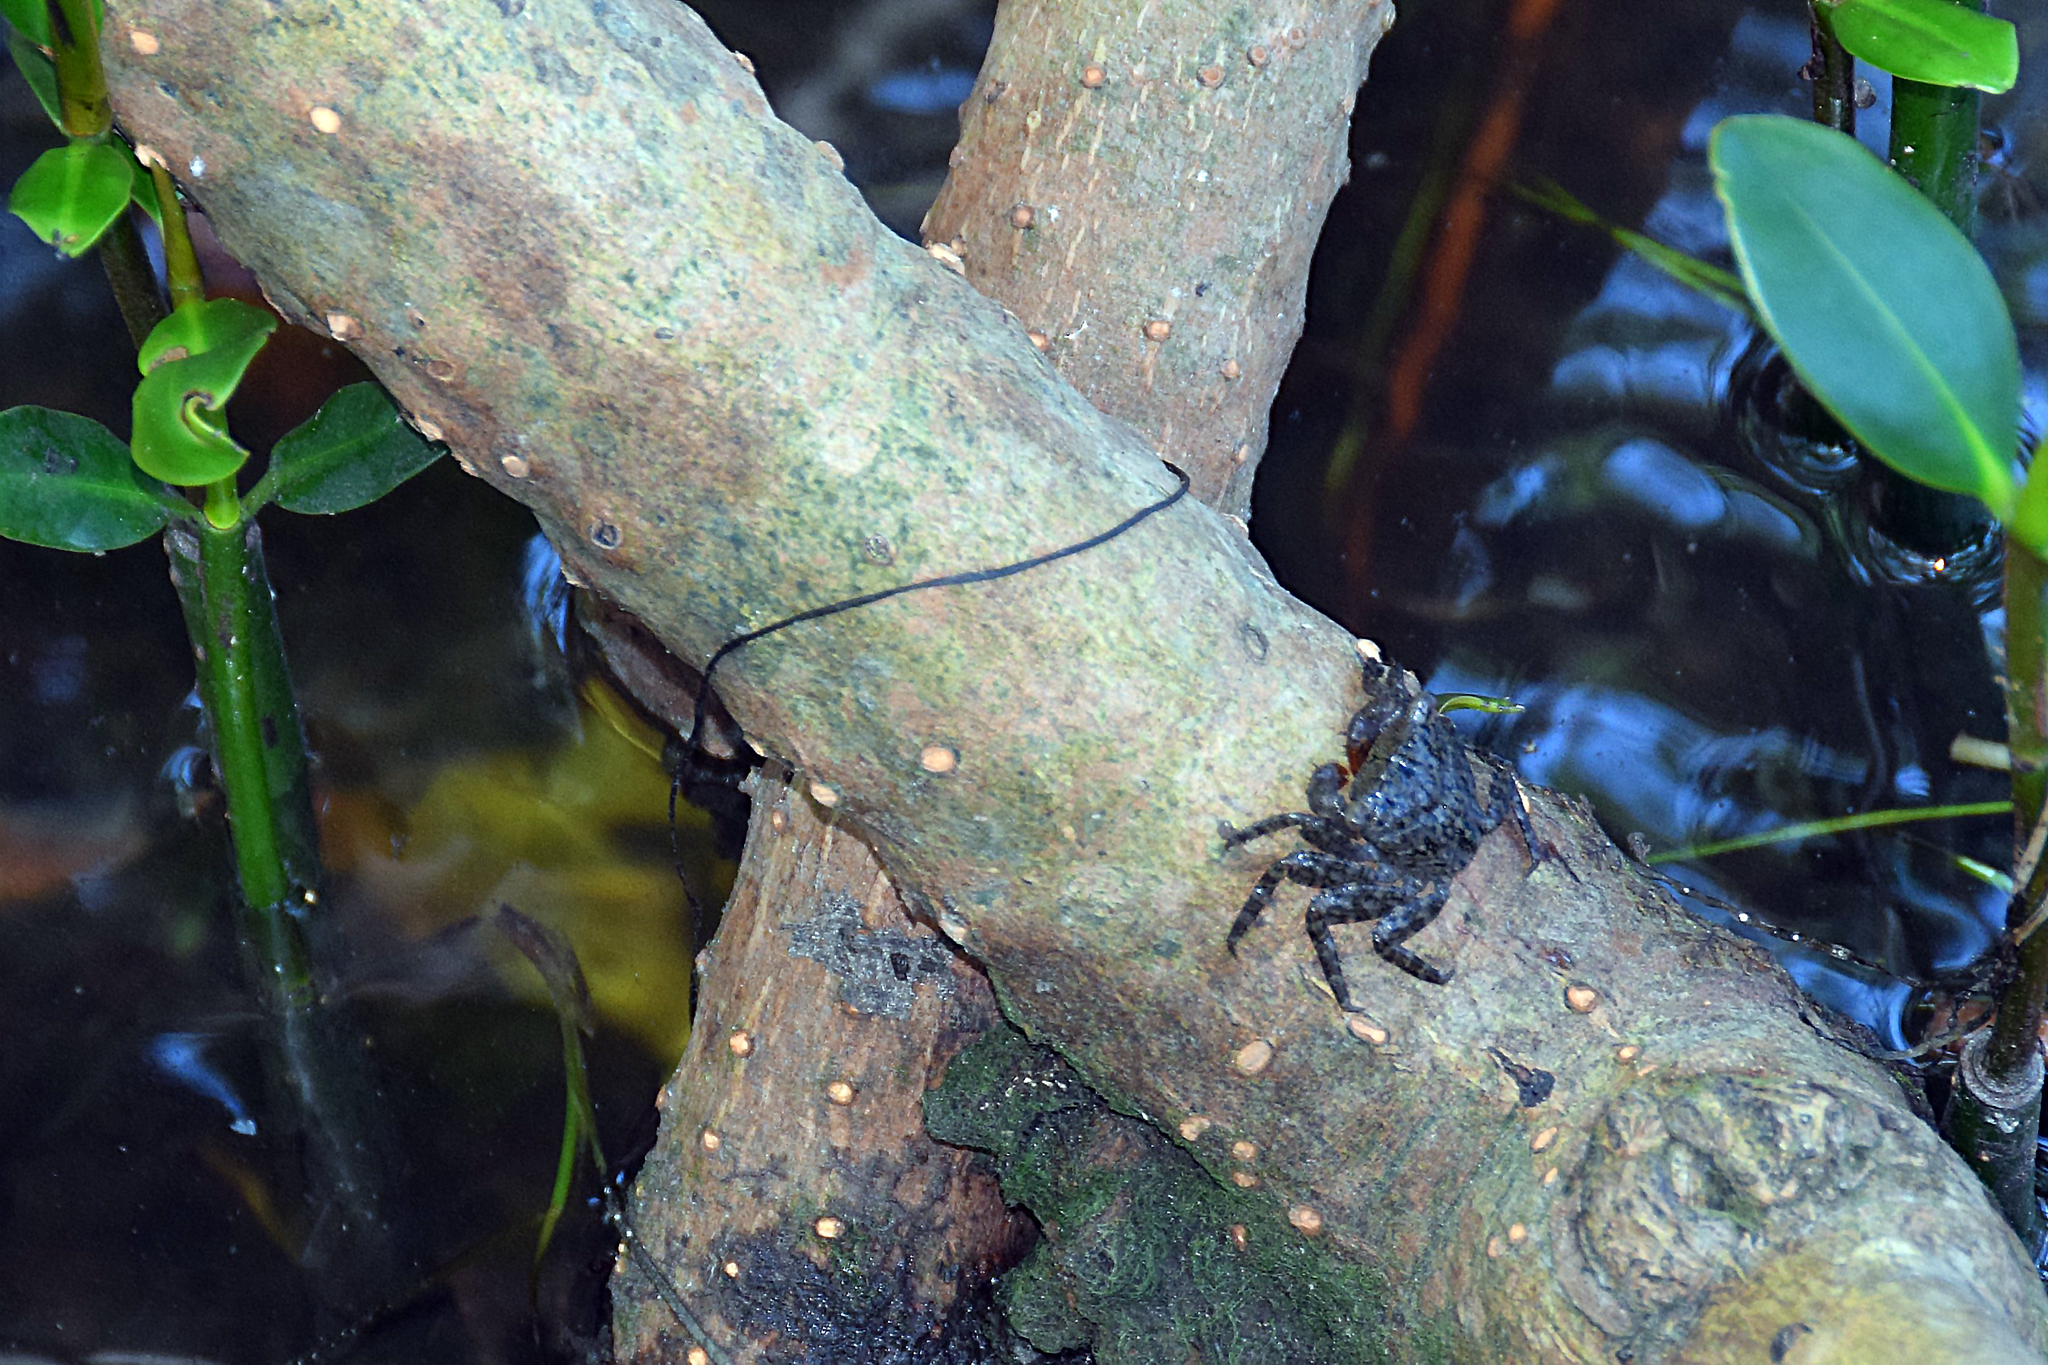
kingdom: Animalia
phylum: Arthropoda
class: Malacostraca
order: Decapoda
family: Sesarmidae
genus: Aratus
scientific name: Aratus pisonii
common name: Mangrove crab
